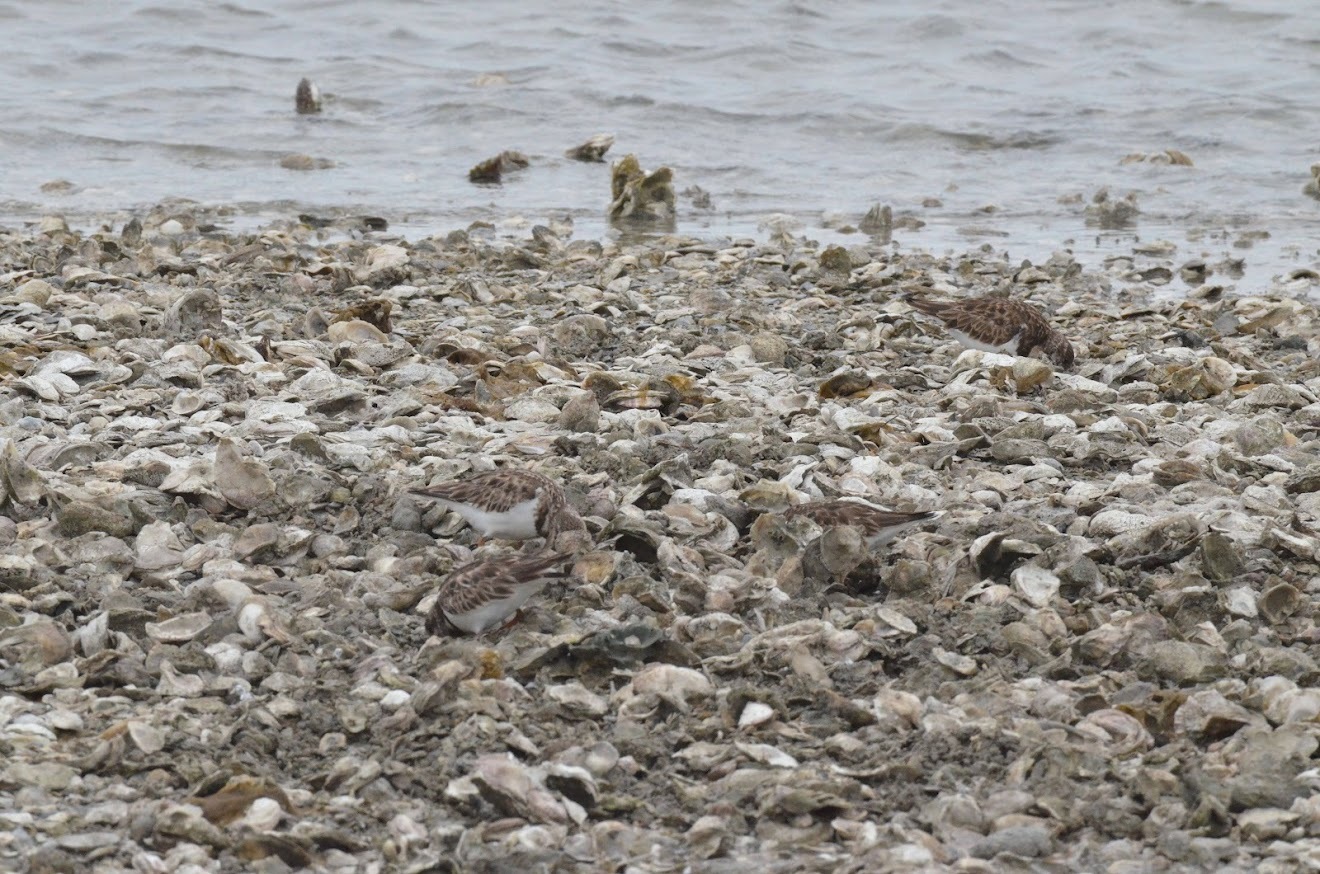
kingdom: Animalia
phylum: Chordata
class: Aves
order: Charadriiformes
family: Scolopacidae
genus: Arenaria
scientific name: Arenaria interpres
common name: Ruddy turnstone
